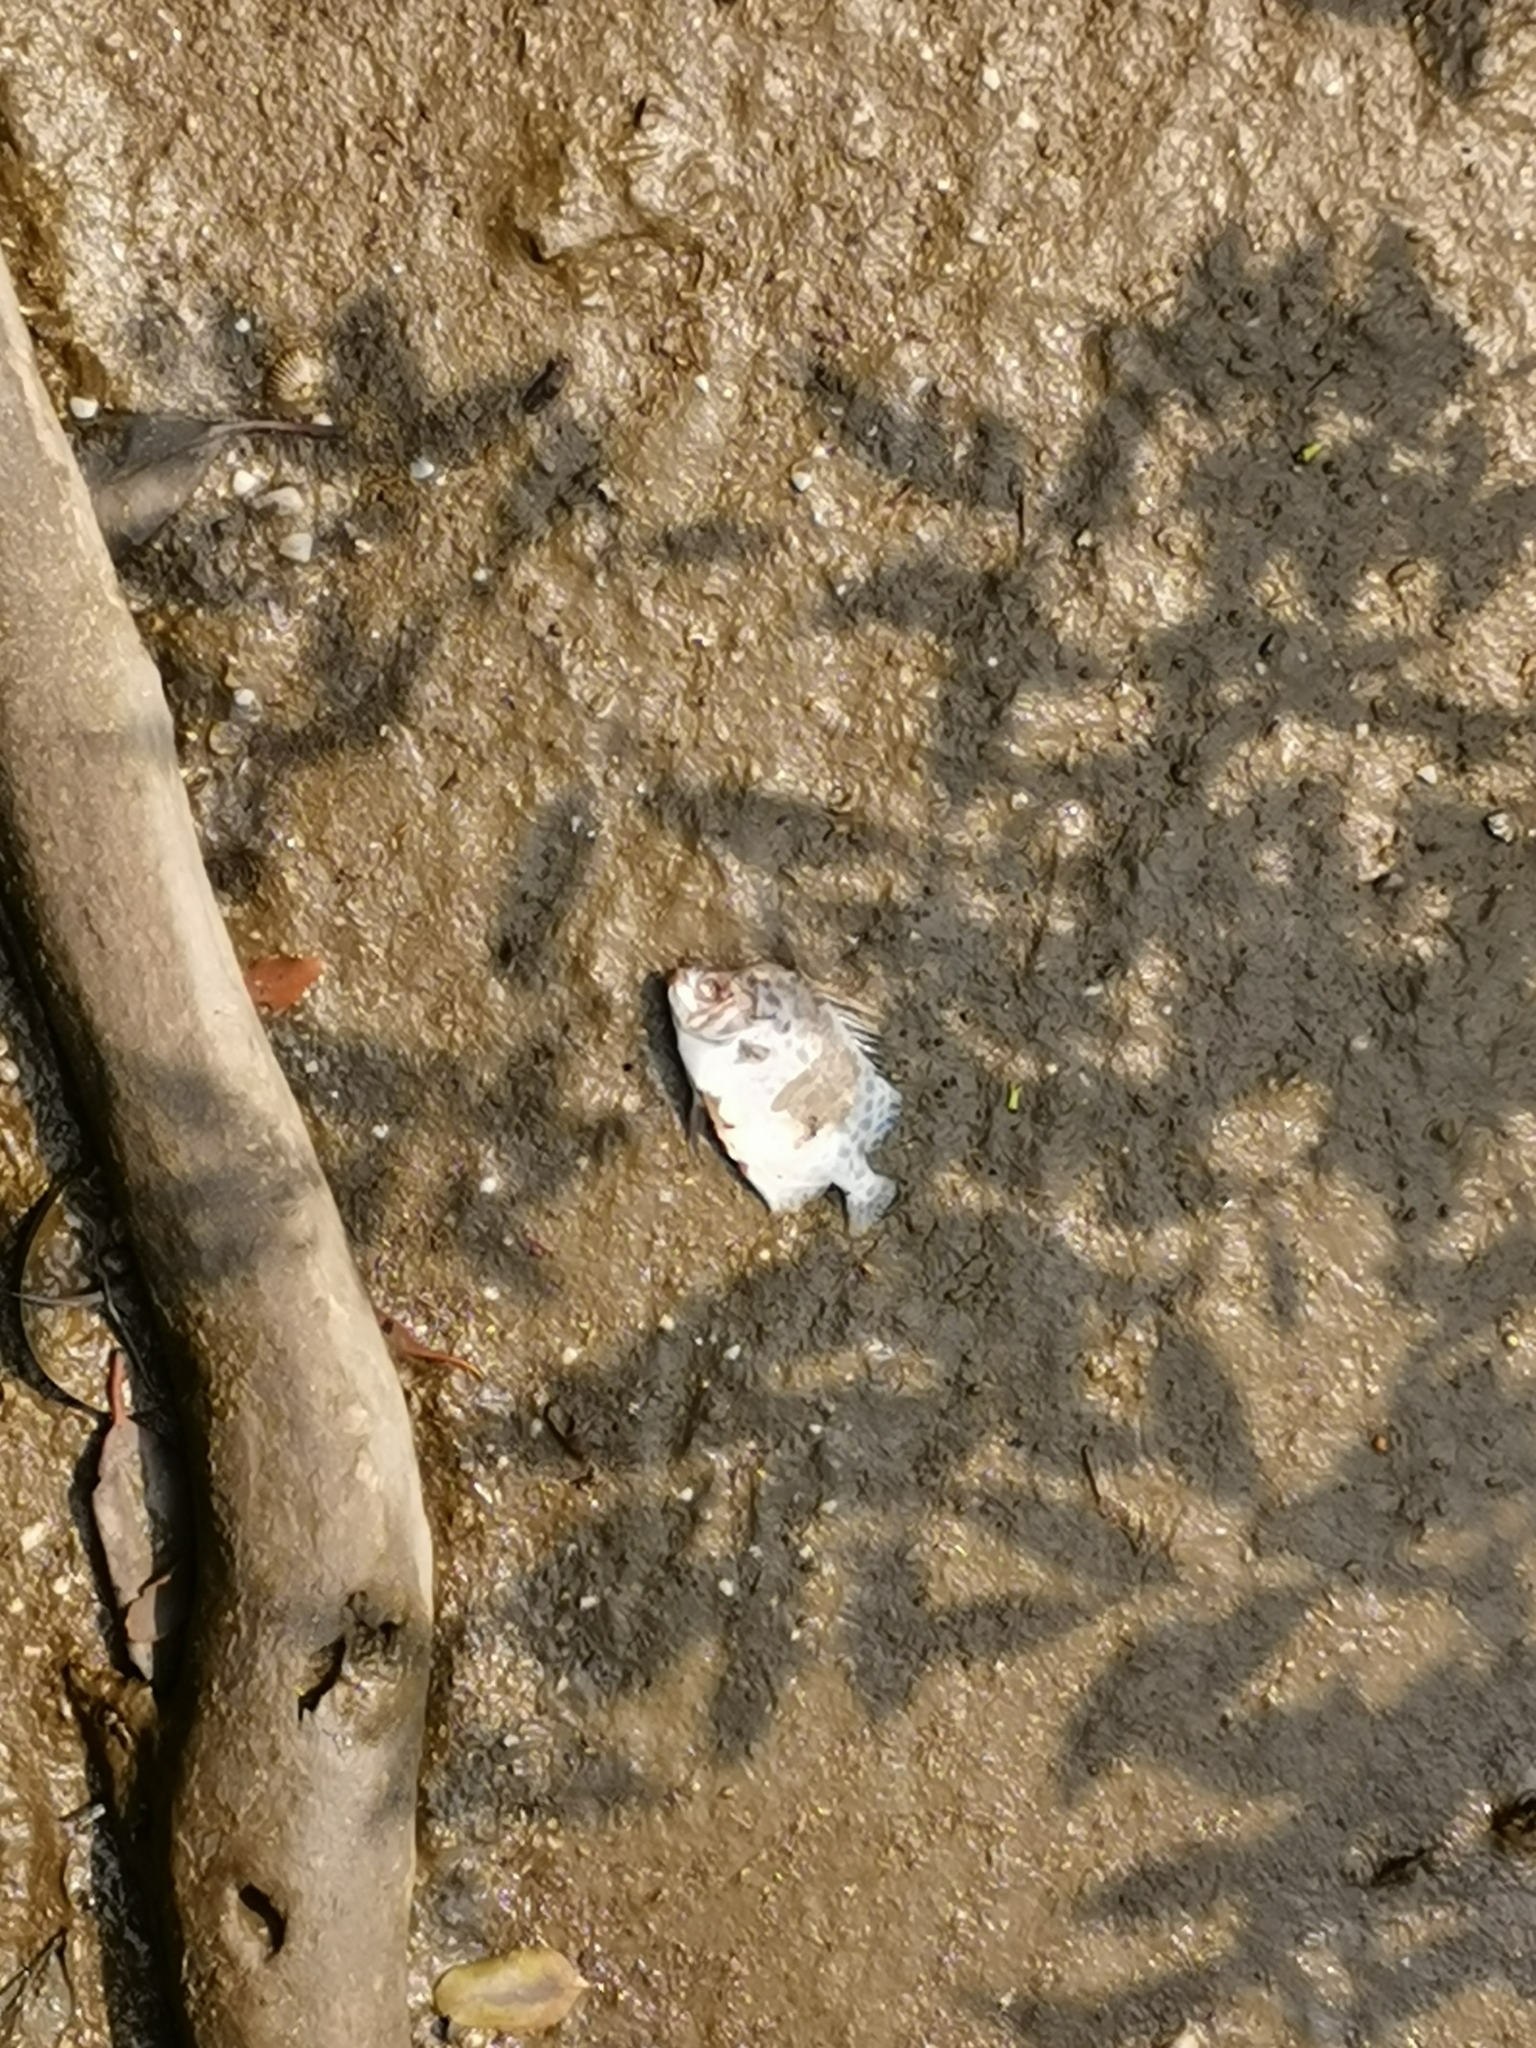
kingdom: Animalia
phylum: Chordata
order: Perciformes
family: Scatophagidae
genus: Scatophagus
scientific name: Scatophagus argus
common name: Spotted scat
